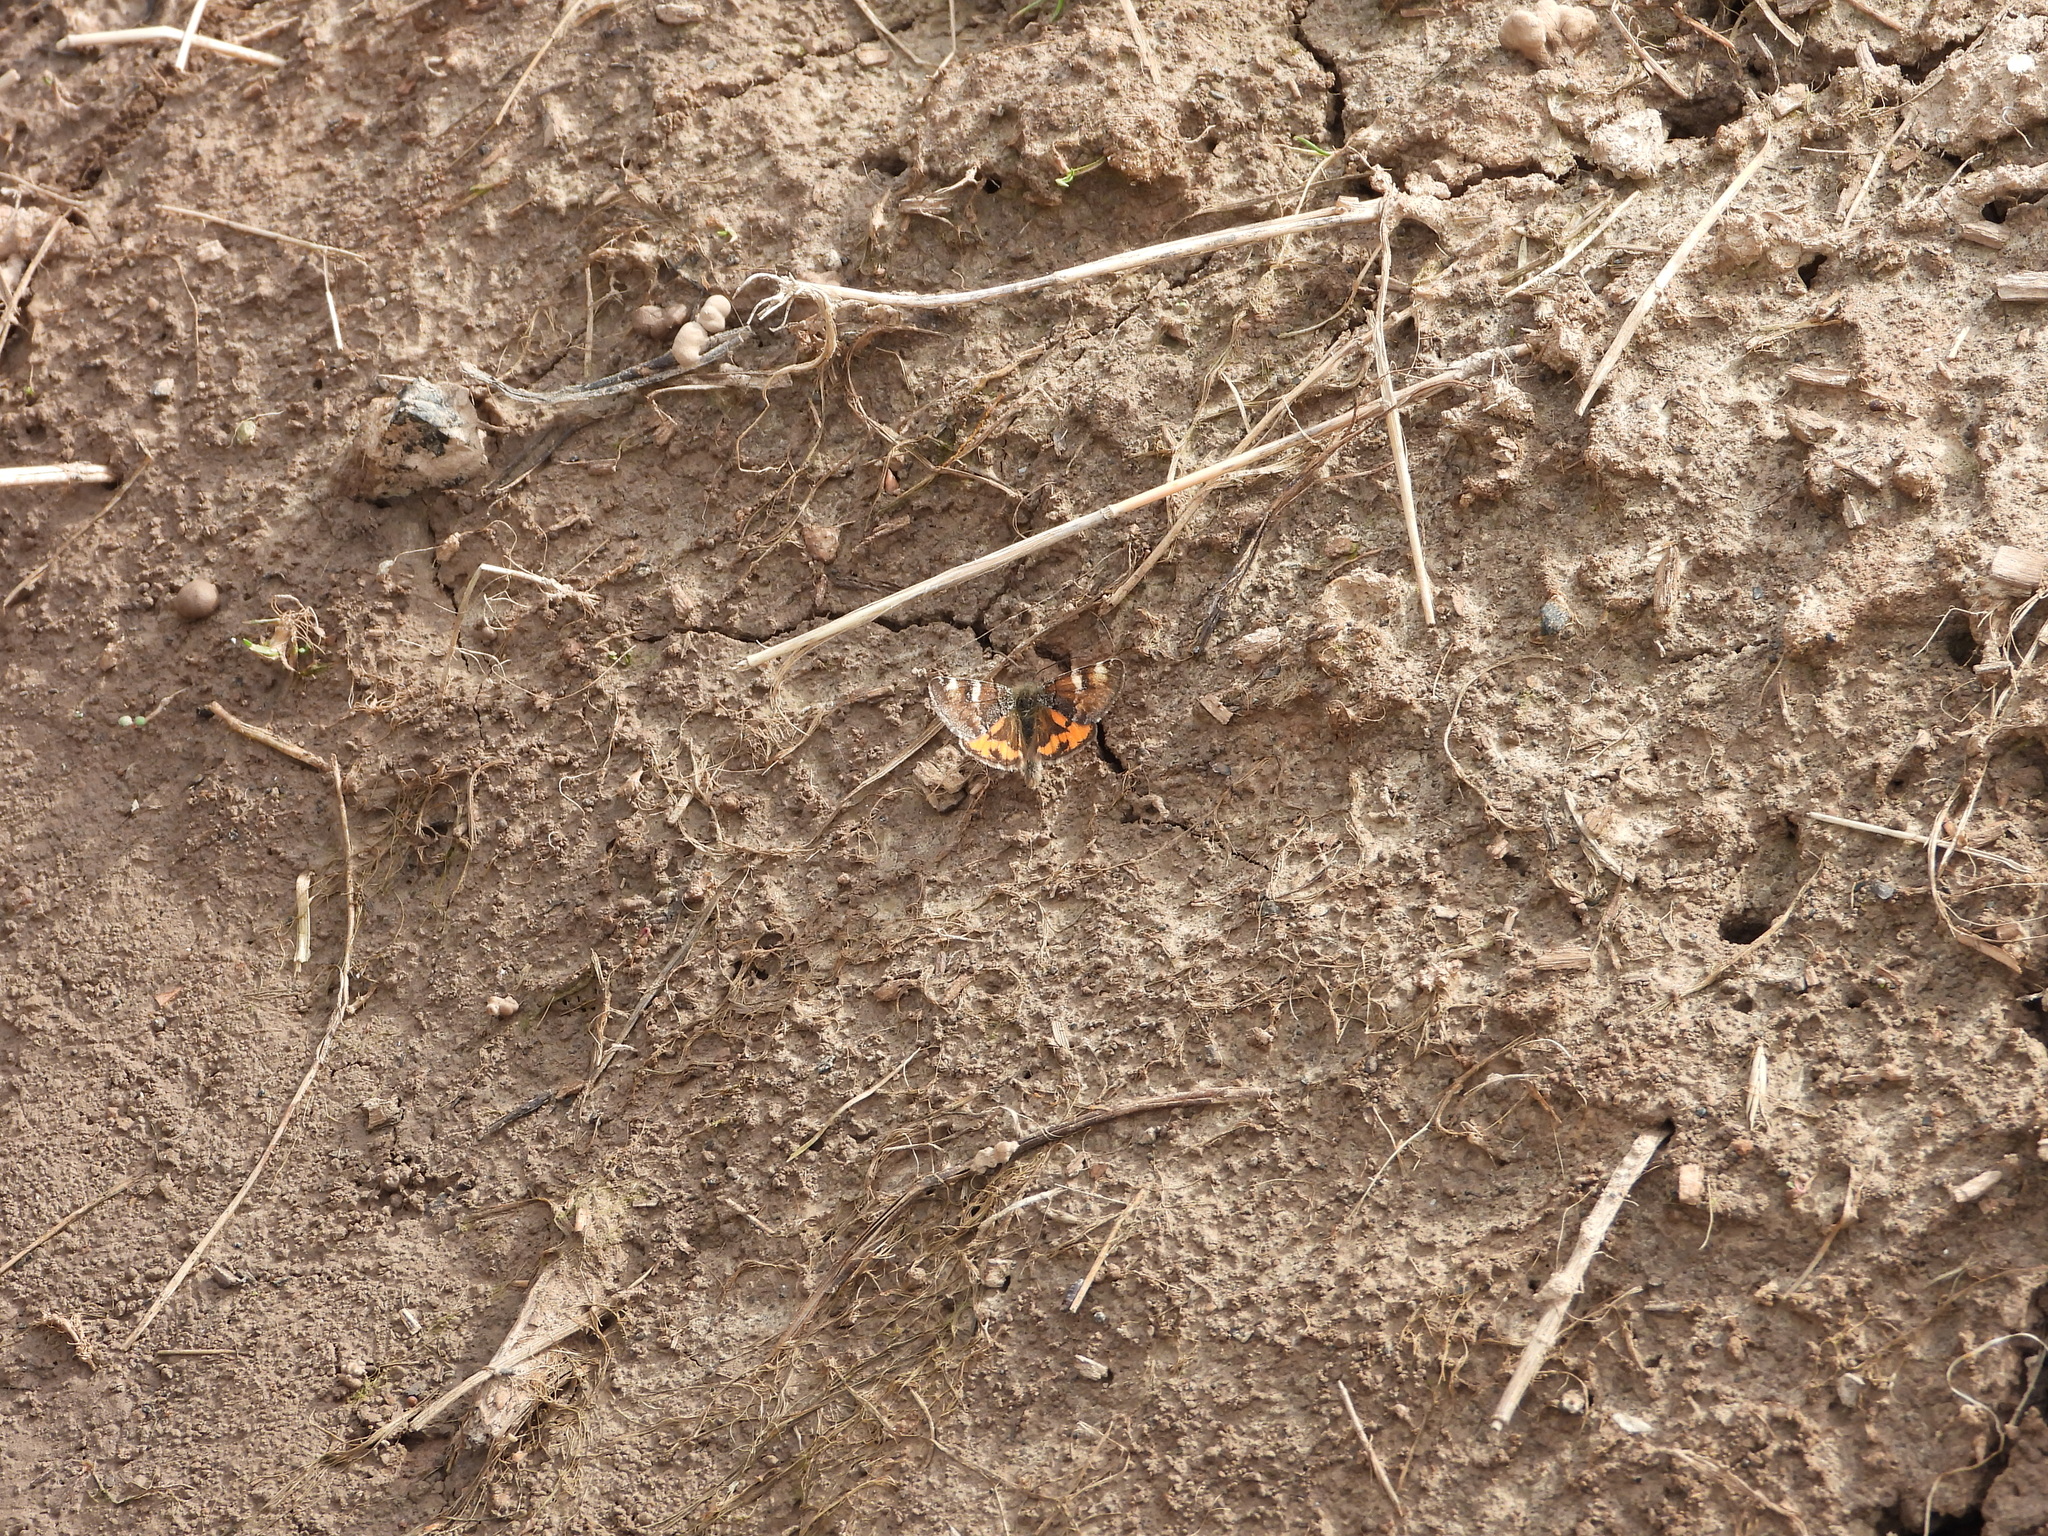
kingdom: Animalia
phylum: Arthropoda
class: Insecta
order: Lepidoptera
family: Geometridae
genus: Archiearis
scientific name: Archiearis parthenias
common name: Orange underwing
